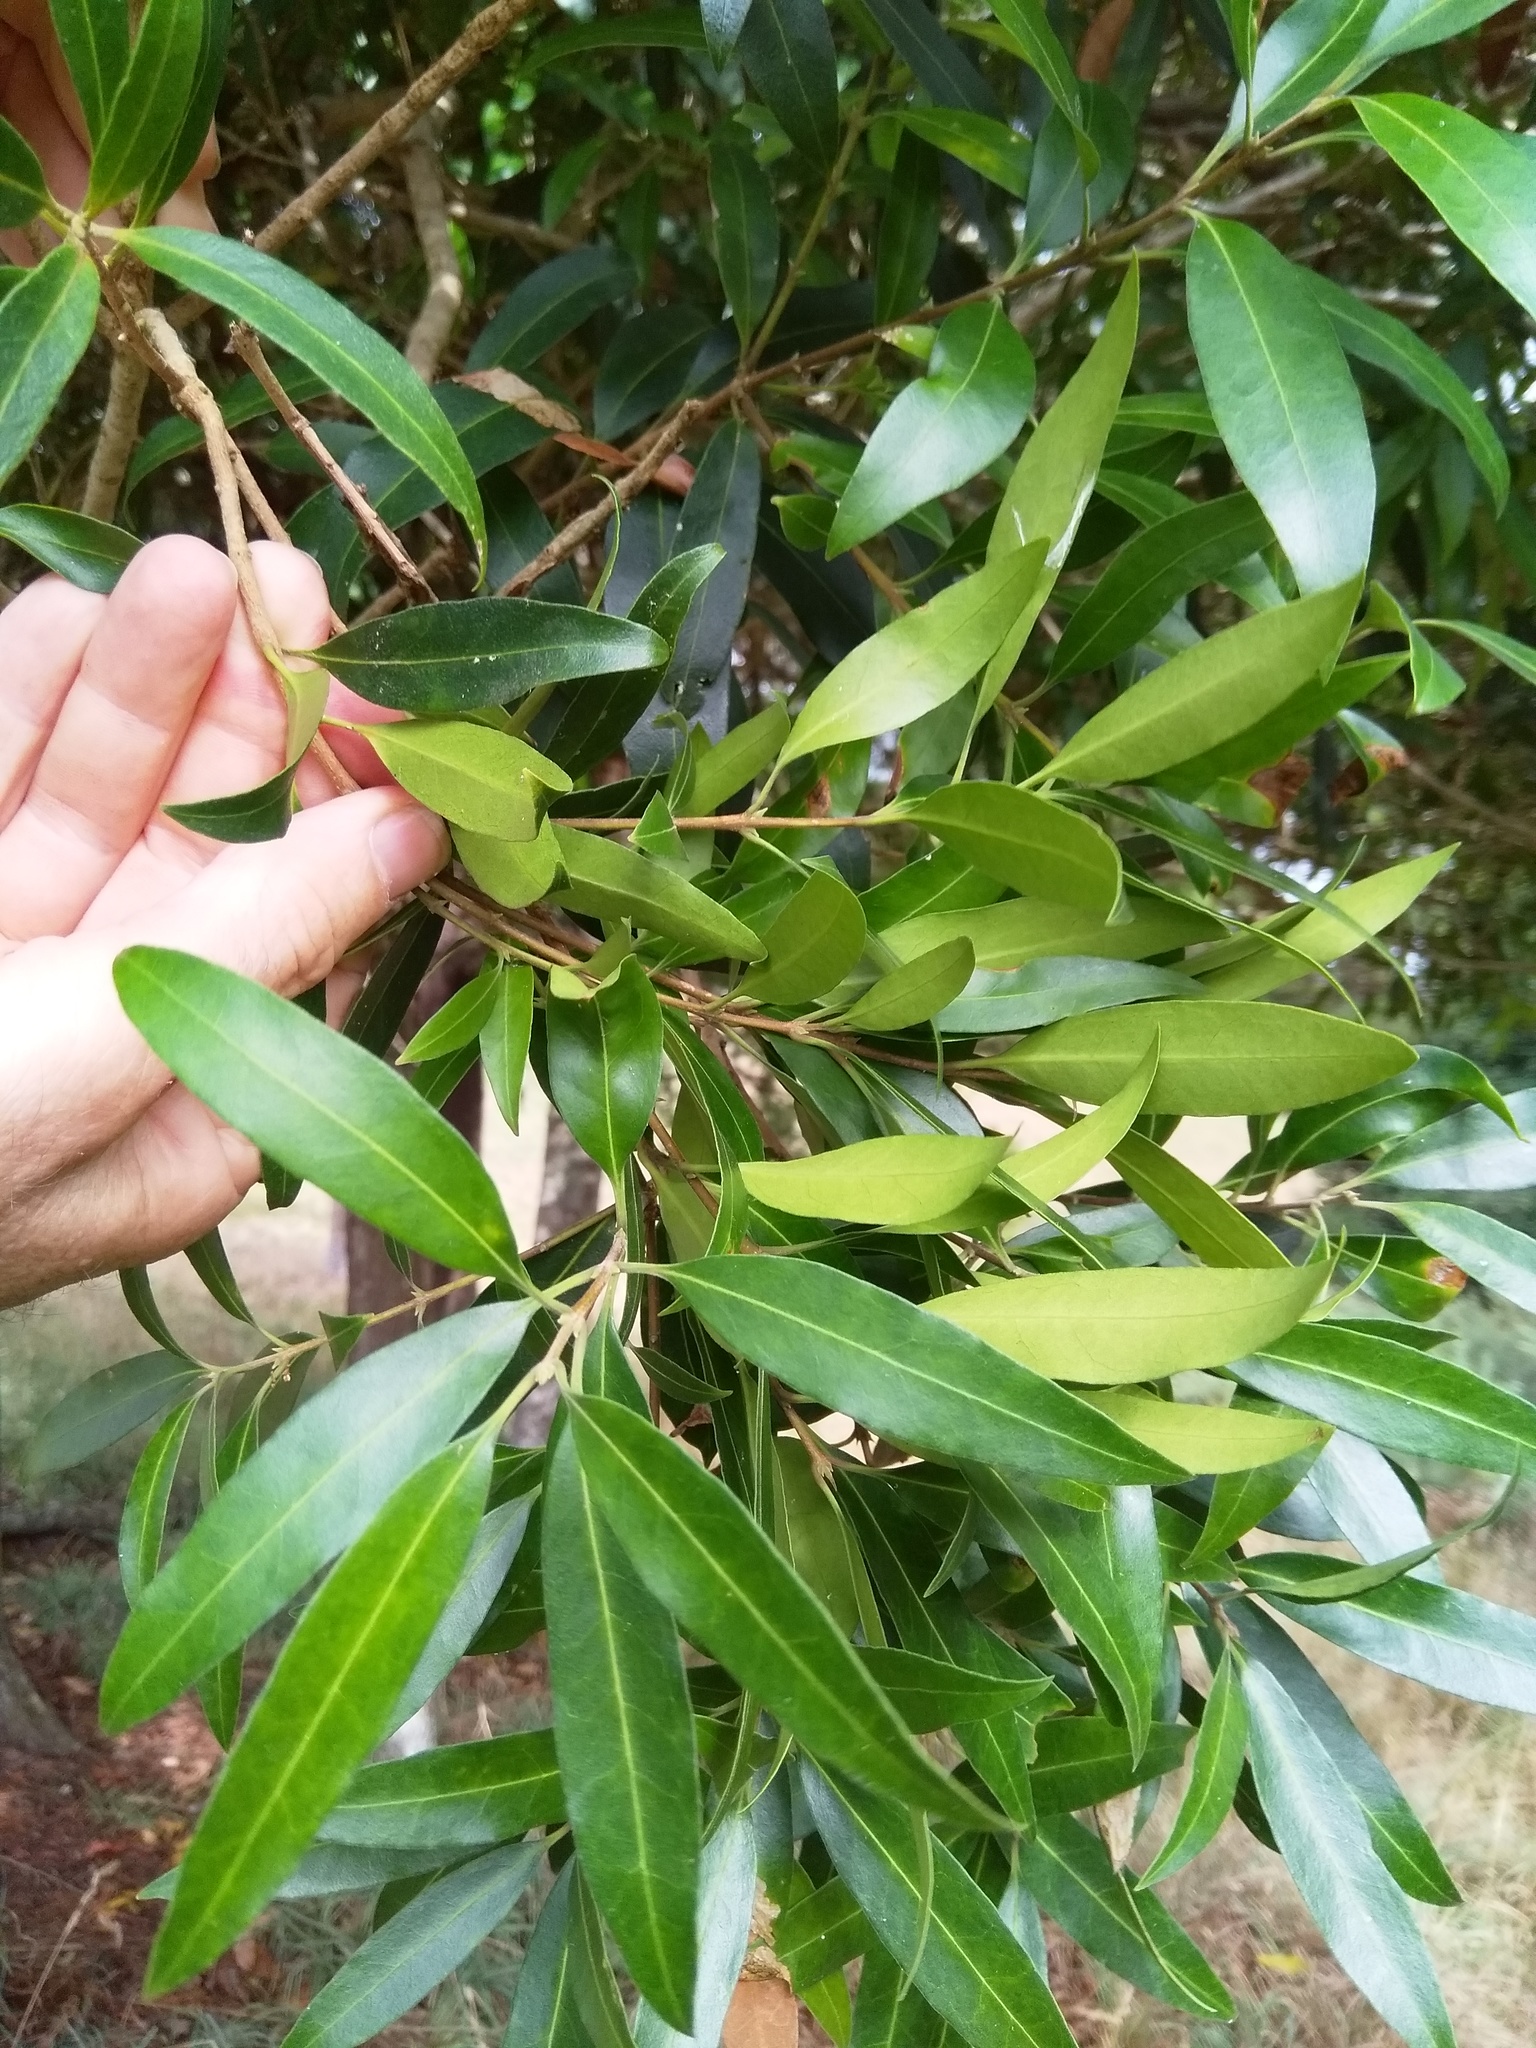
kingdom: Plantae
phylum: Tracheophyta
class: Magnoliopsida
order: Lamiales
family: Oleaceae
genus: Nestegis
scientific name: Nestegis lanceolata
